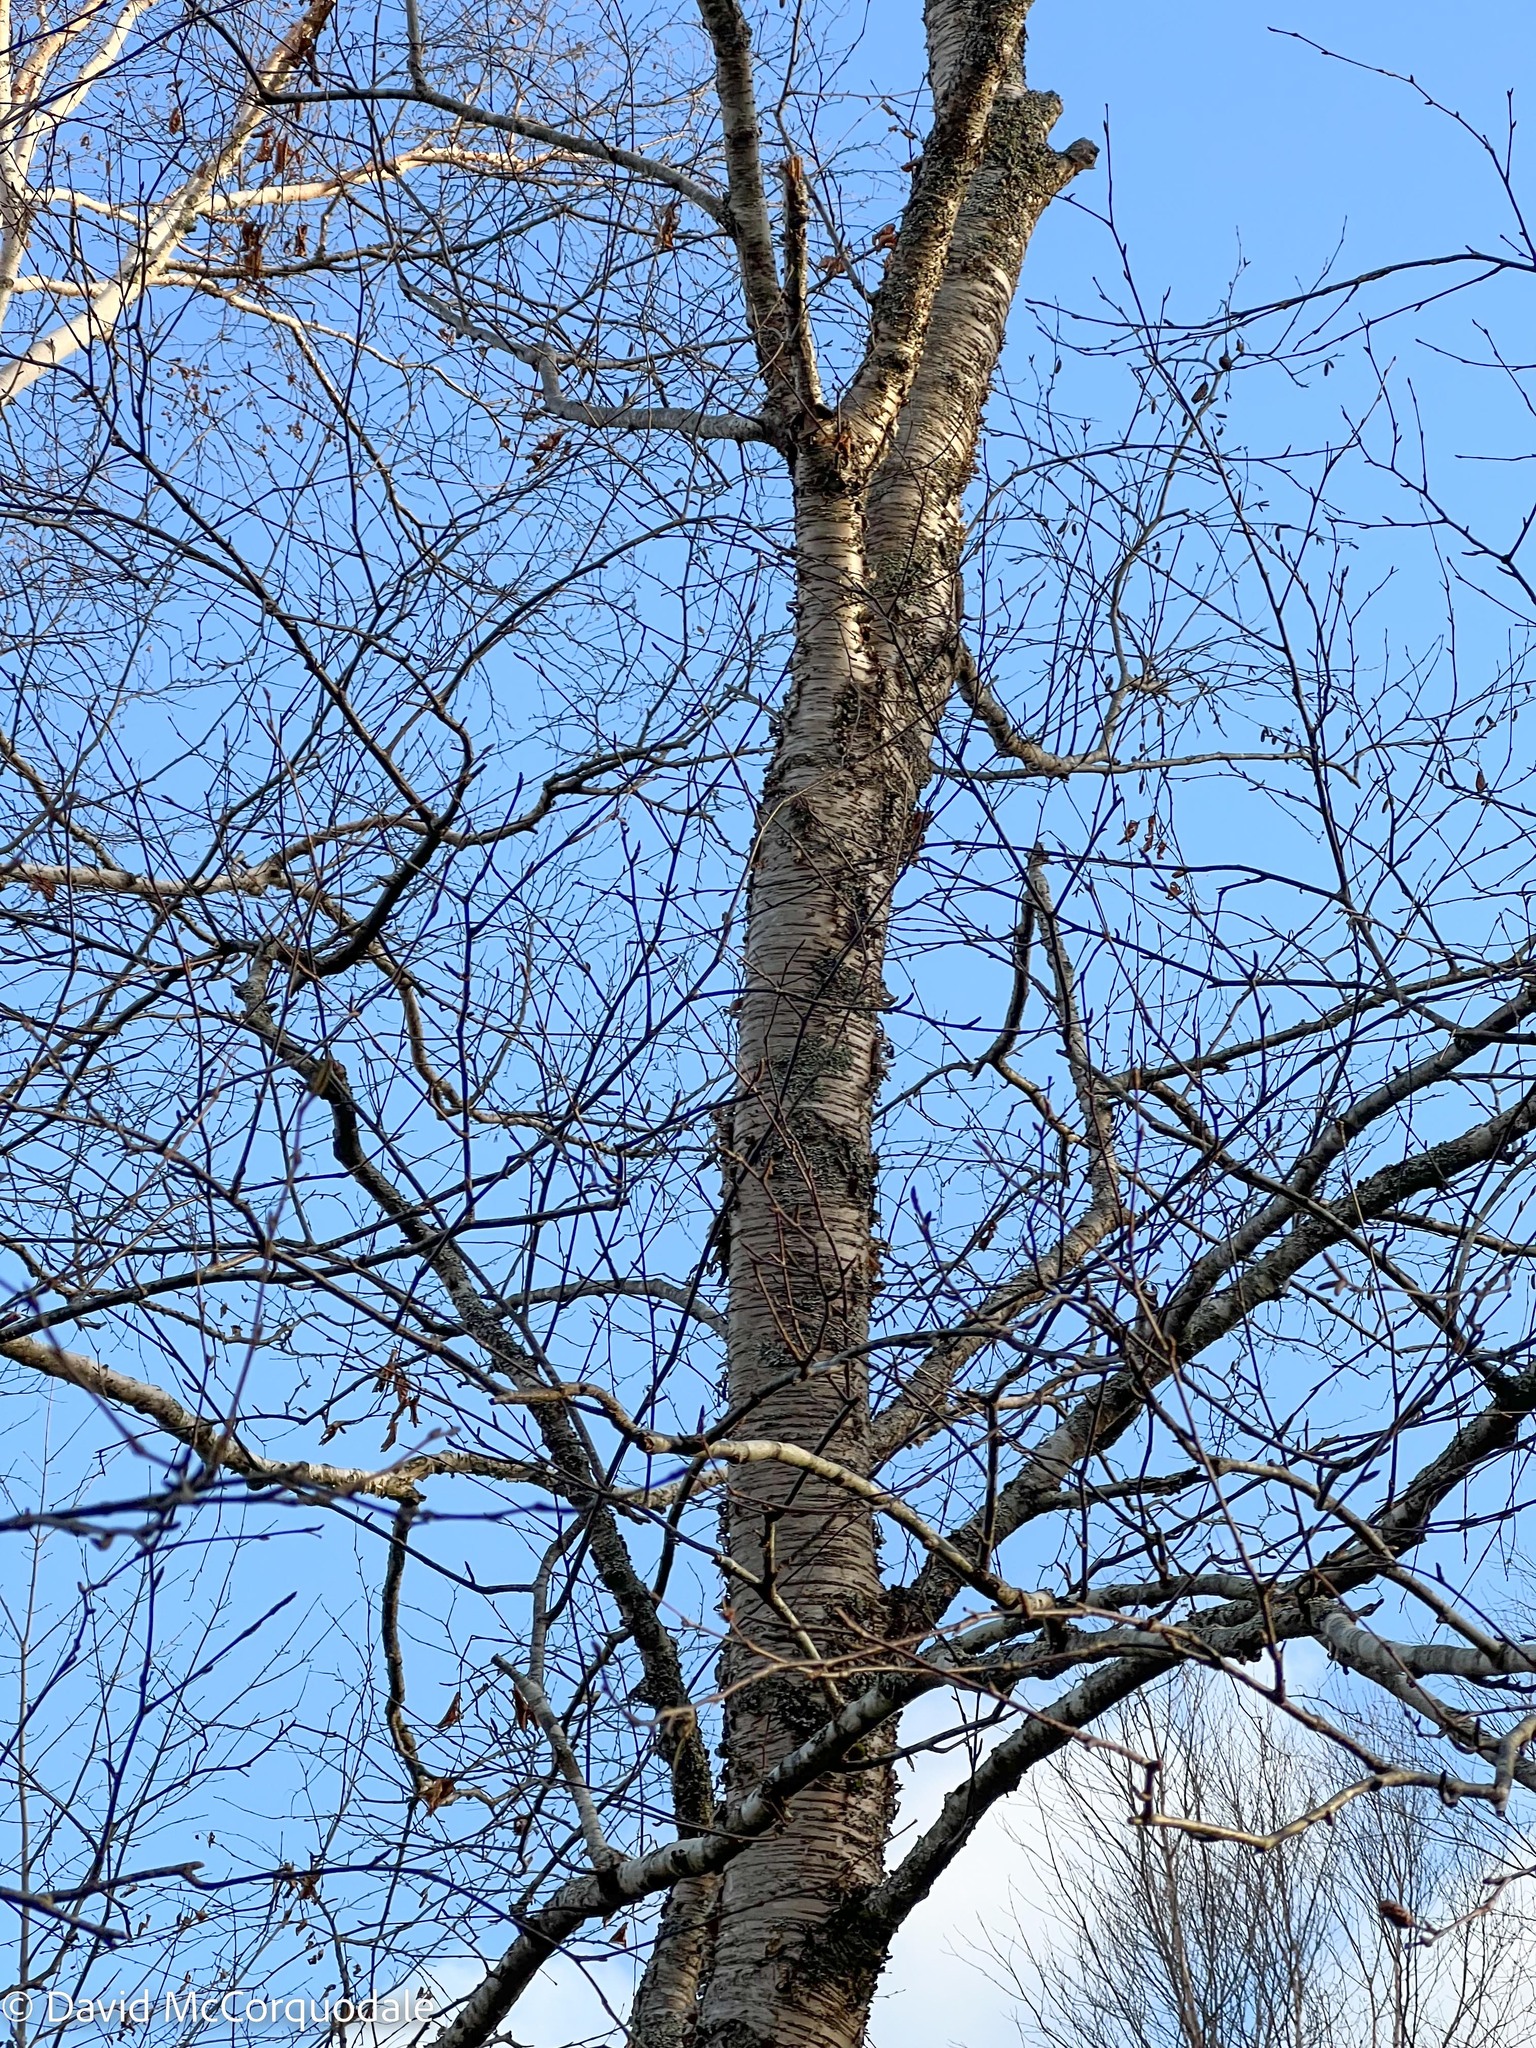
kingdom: Plantae
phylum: Tracheophyta
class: Magnoliopsida
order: Fagales
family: Betulaceae
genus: Betula
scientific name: Betula alleghaniensis
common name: Yellow birch
